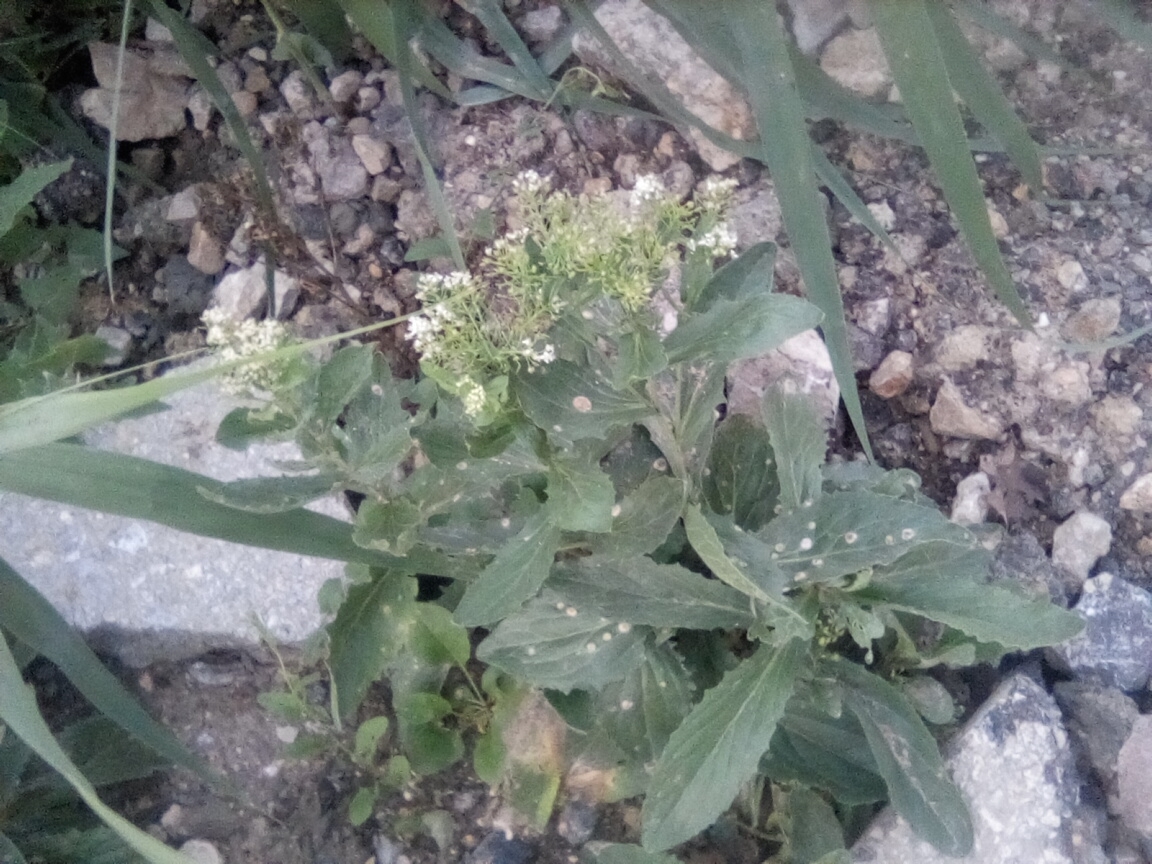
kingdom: Plantae
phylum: Tracheophyta
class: Magnoliopsida
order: Brassicales
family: Brassicaceae
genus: Lepidium
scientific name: Lepidium draba
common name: Hoary cress
